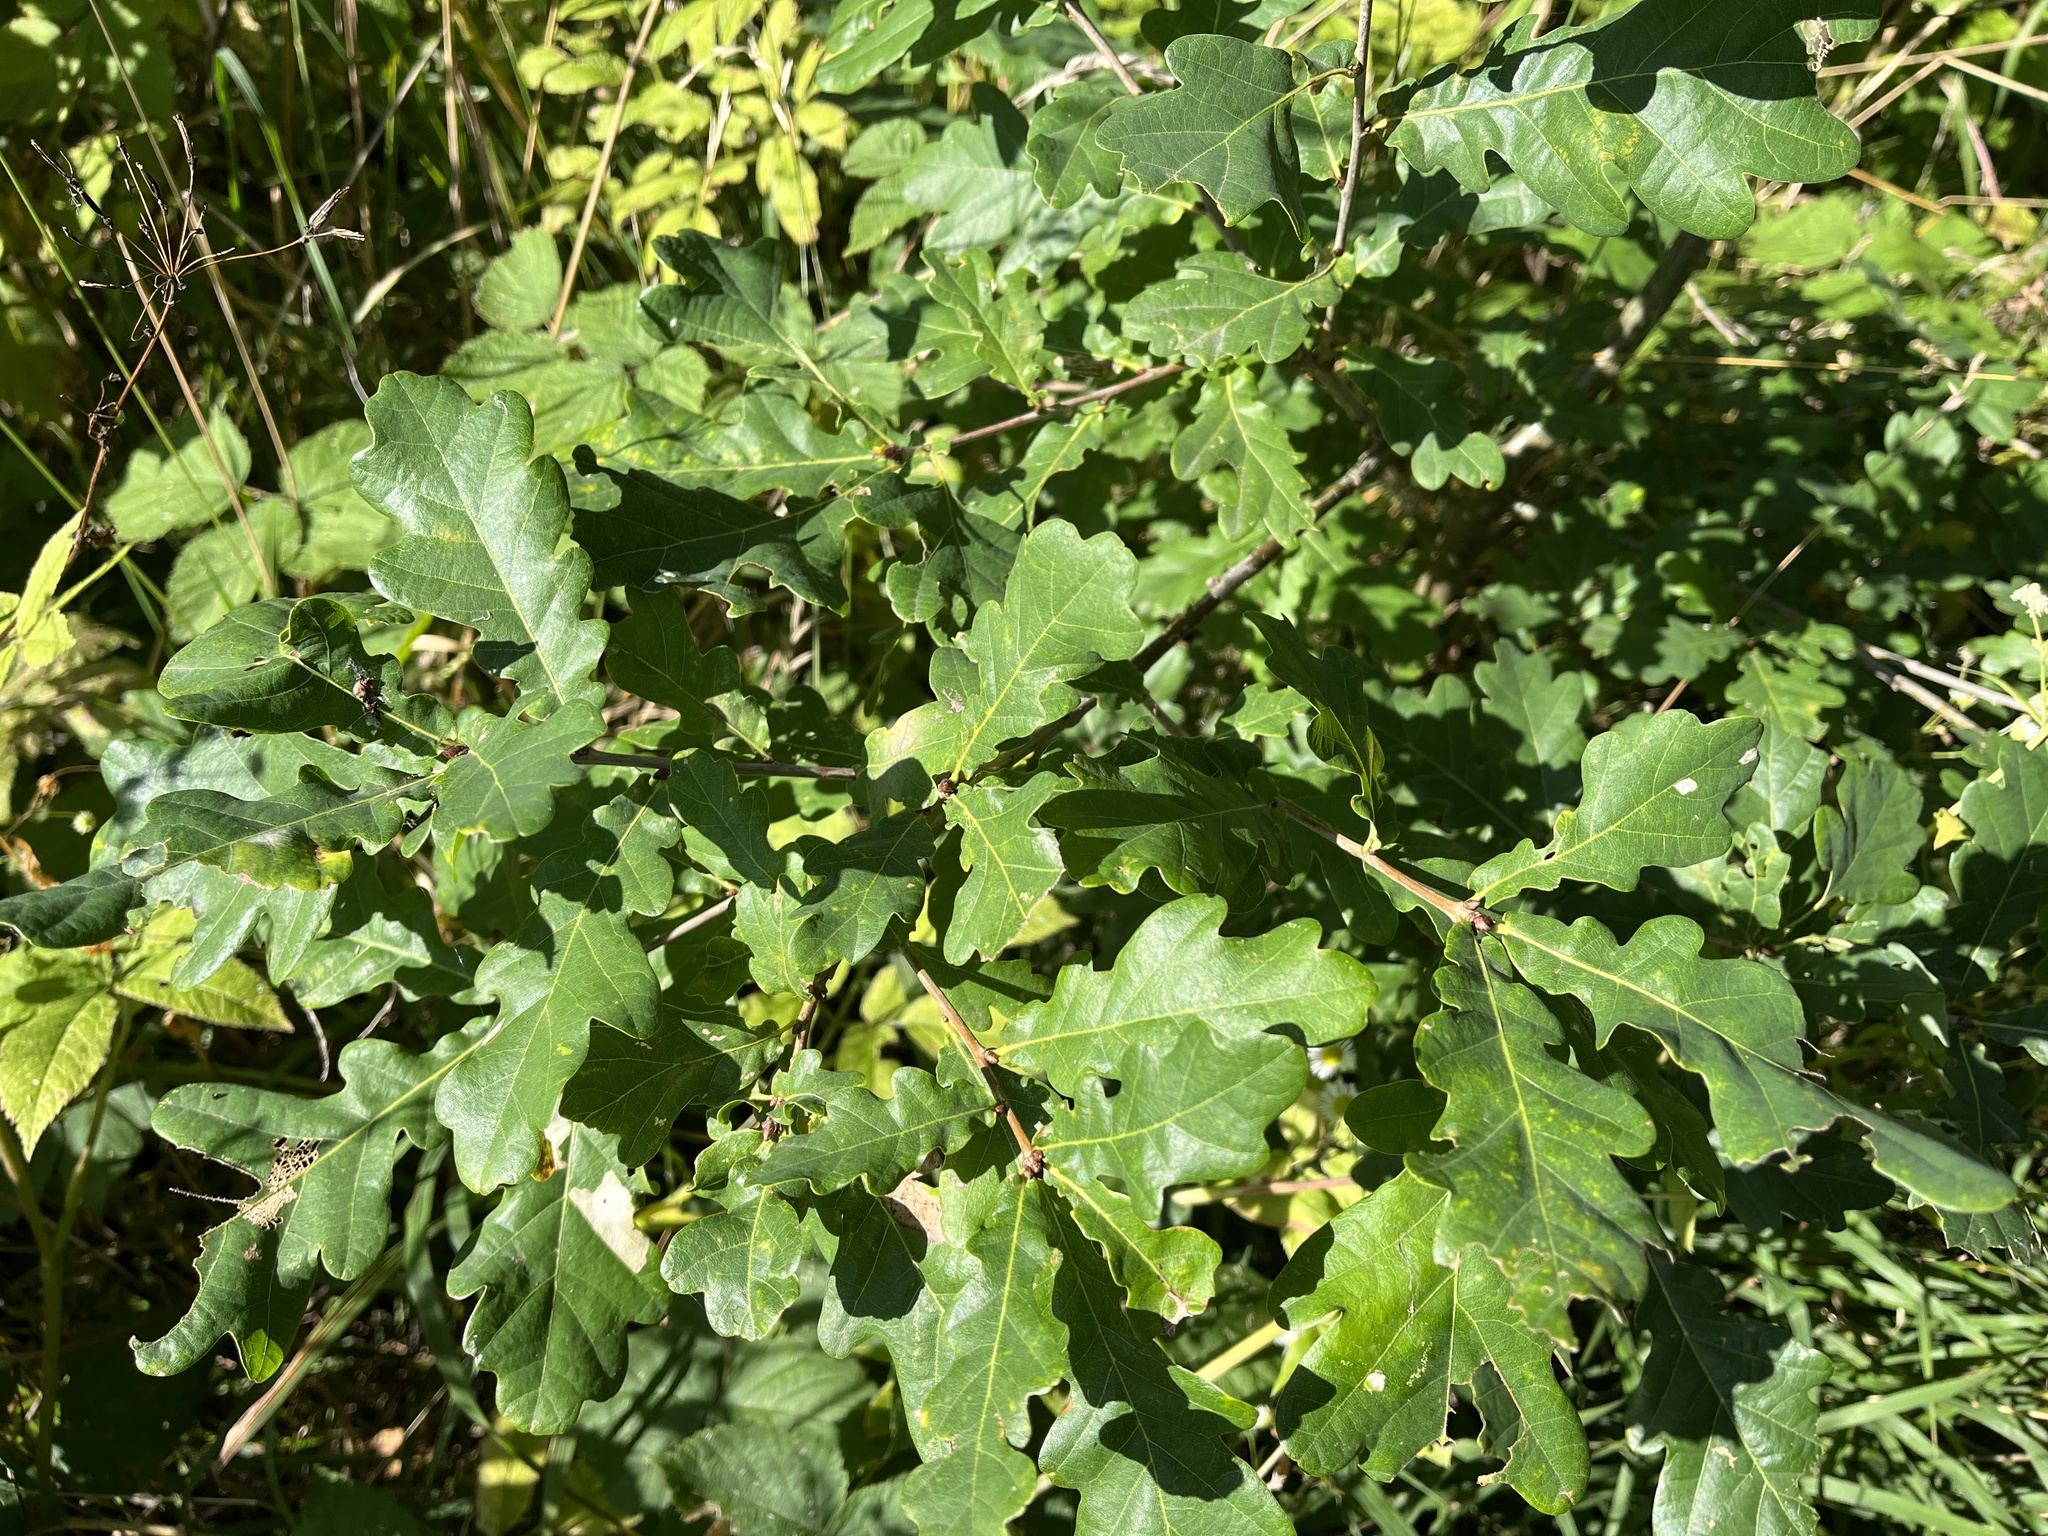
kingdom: Plantae
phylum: Tracheophyta
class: Magnoliopsida
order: Fagales
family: Fagaceae
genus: Quercus
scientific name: Quercus robur
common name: Pedunculate oak
